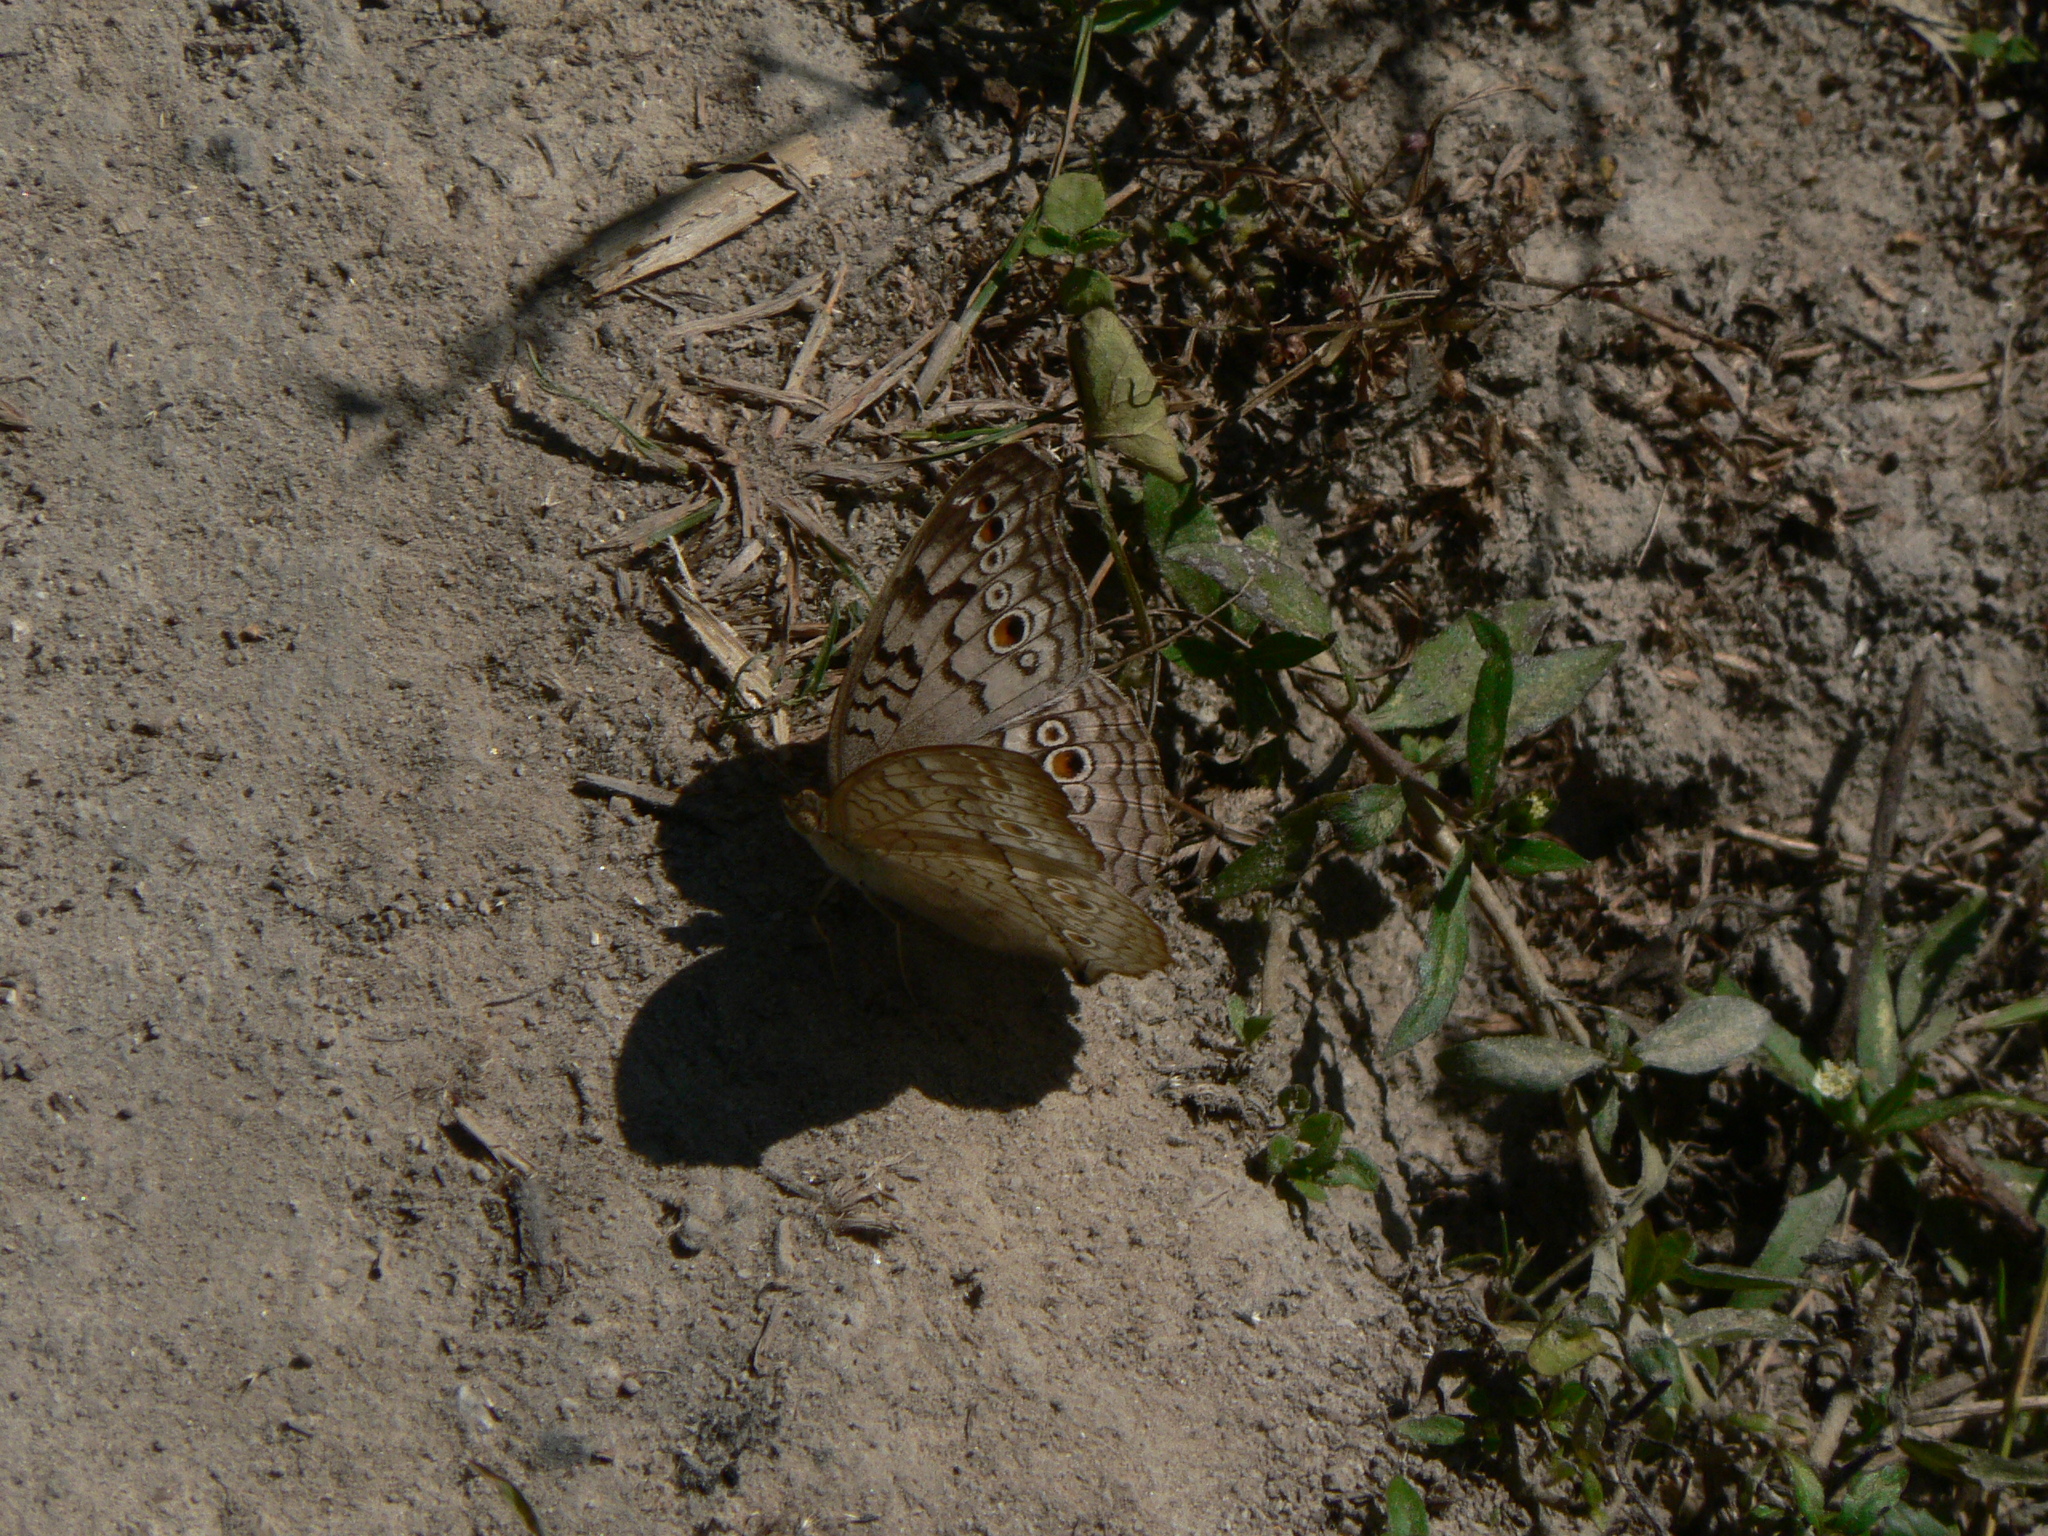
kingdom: Animalia
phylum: Arthropoda
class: Insecta
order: Lepidoptera
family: Nymphalidae
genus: Junonia
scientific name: Junonia atlites
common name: Grey pansy
